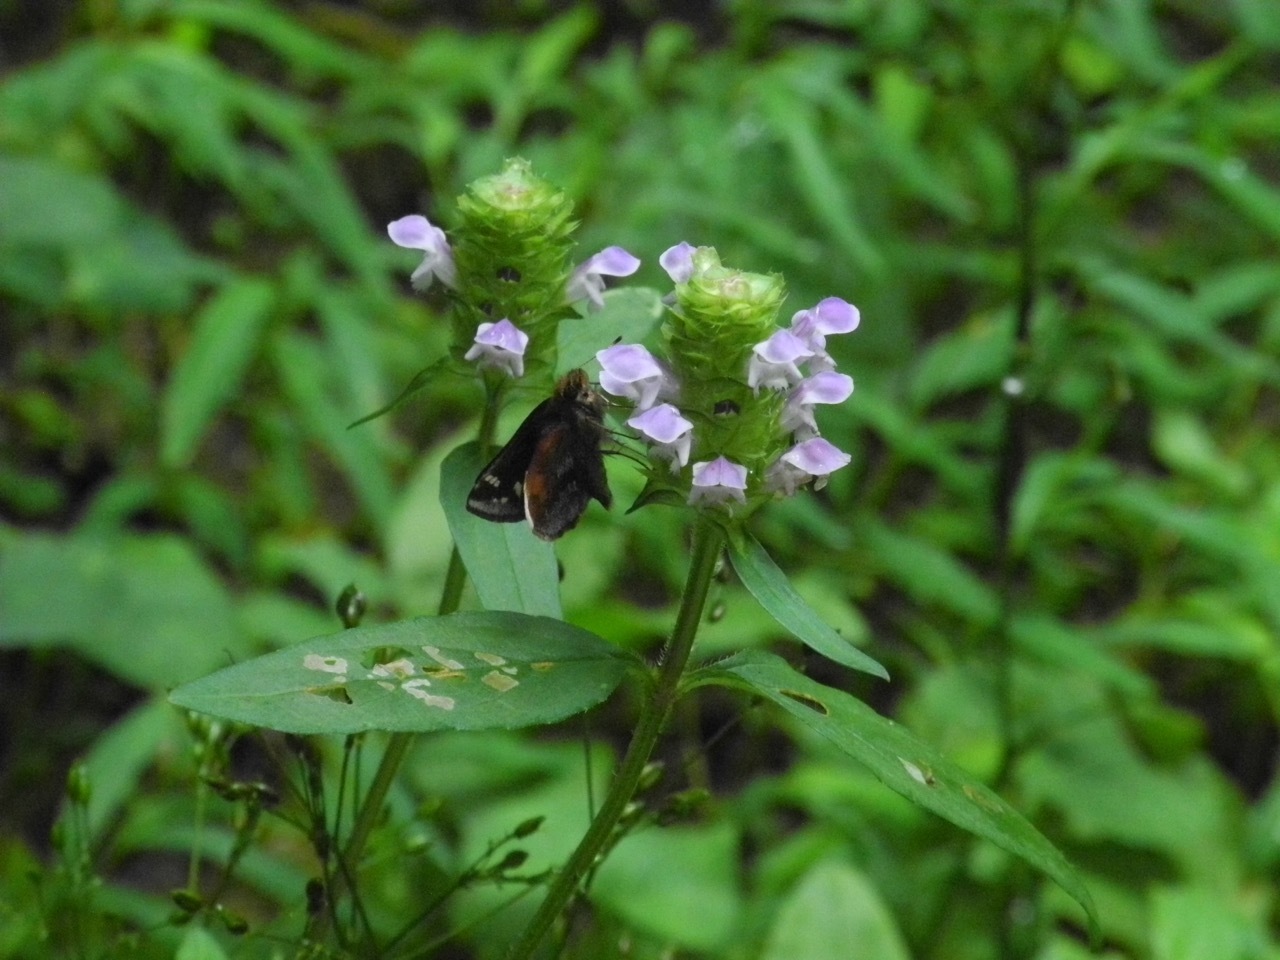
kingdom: Plantae
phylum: Tracheophyta
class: Magnoliopsida
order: Lamiales
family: Lamiaceae
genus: Prunella
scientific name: Prunella vulgaris
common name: Heal-all
